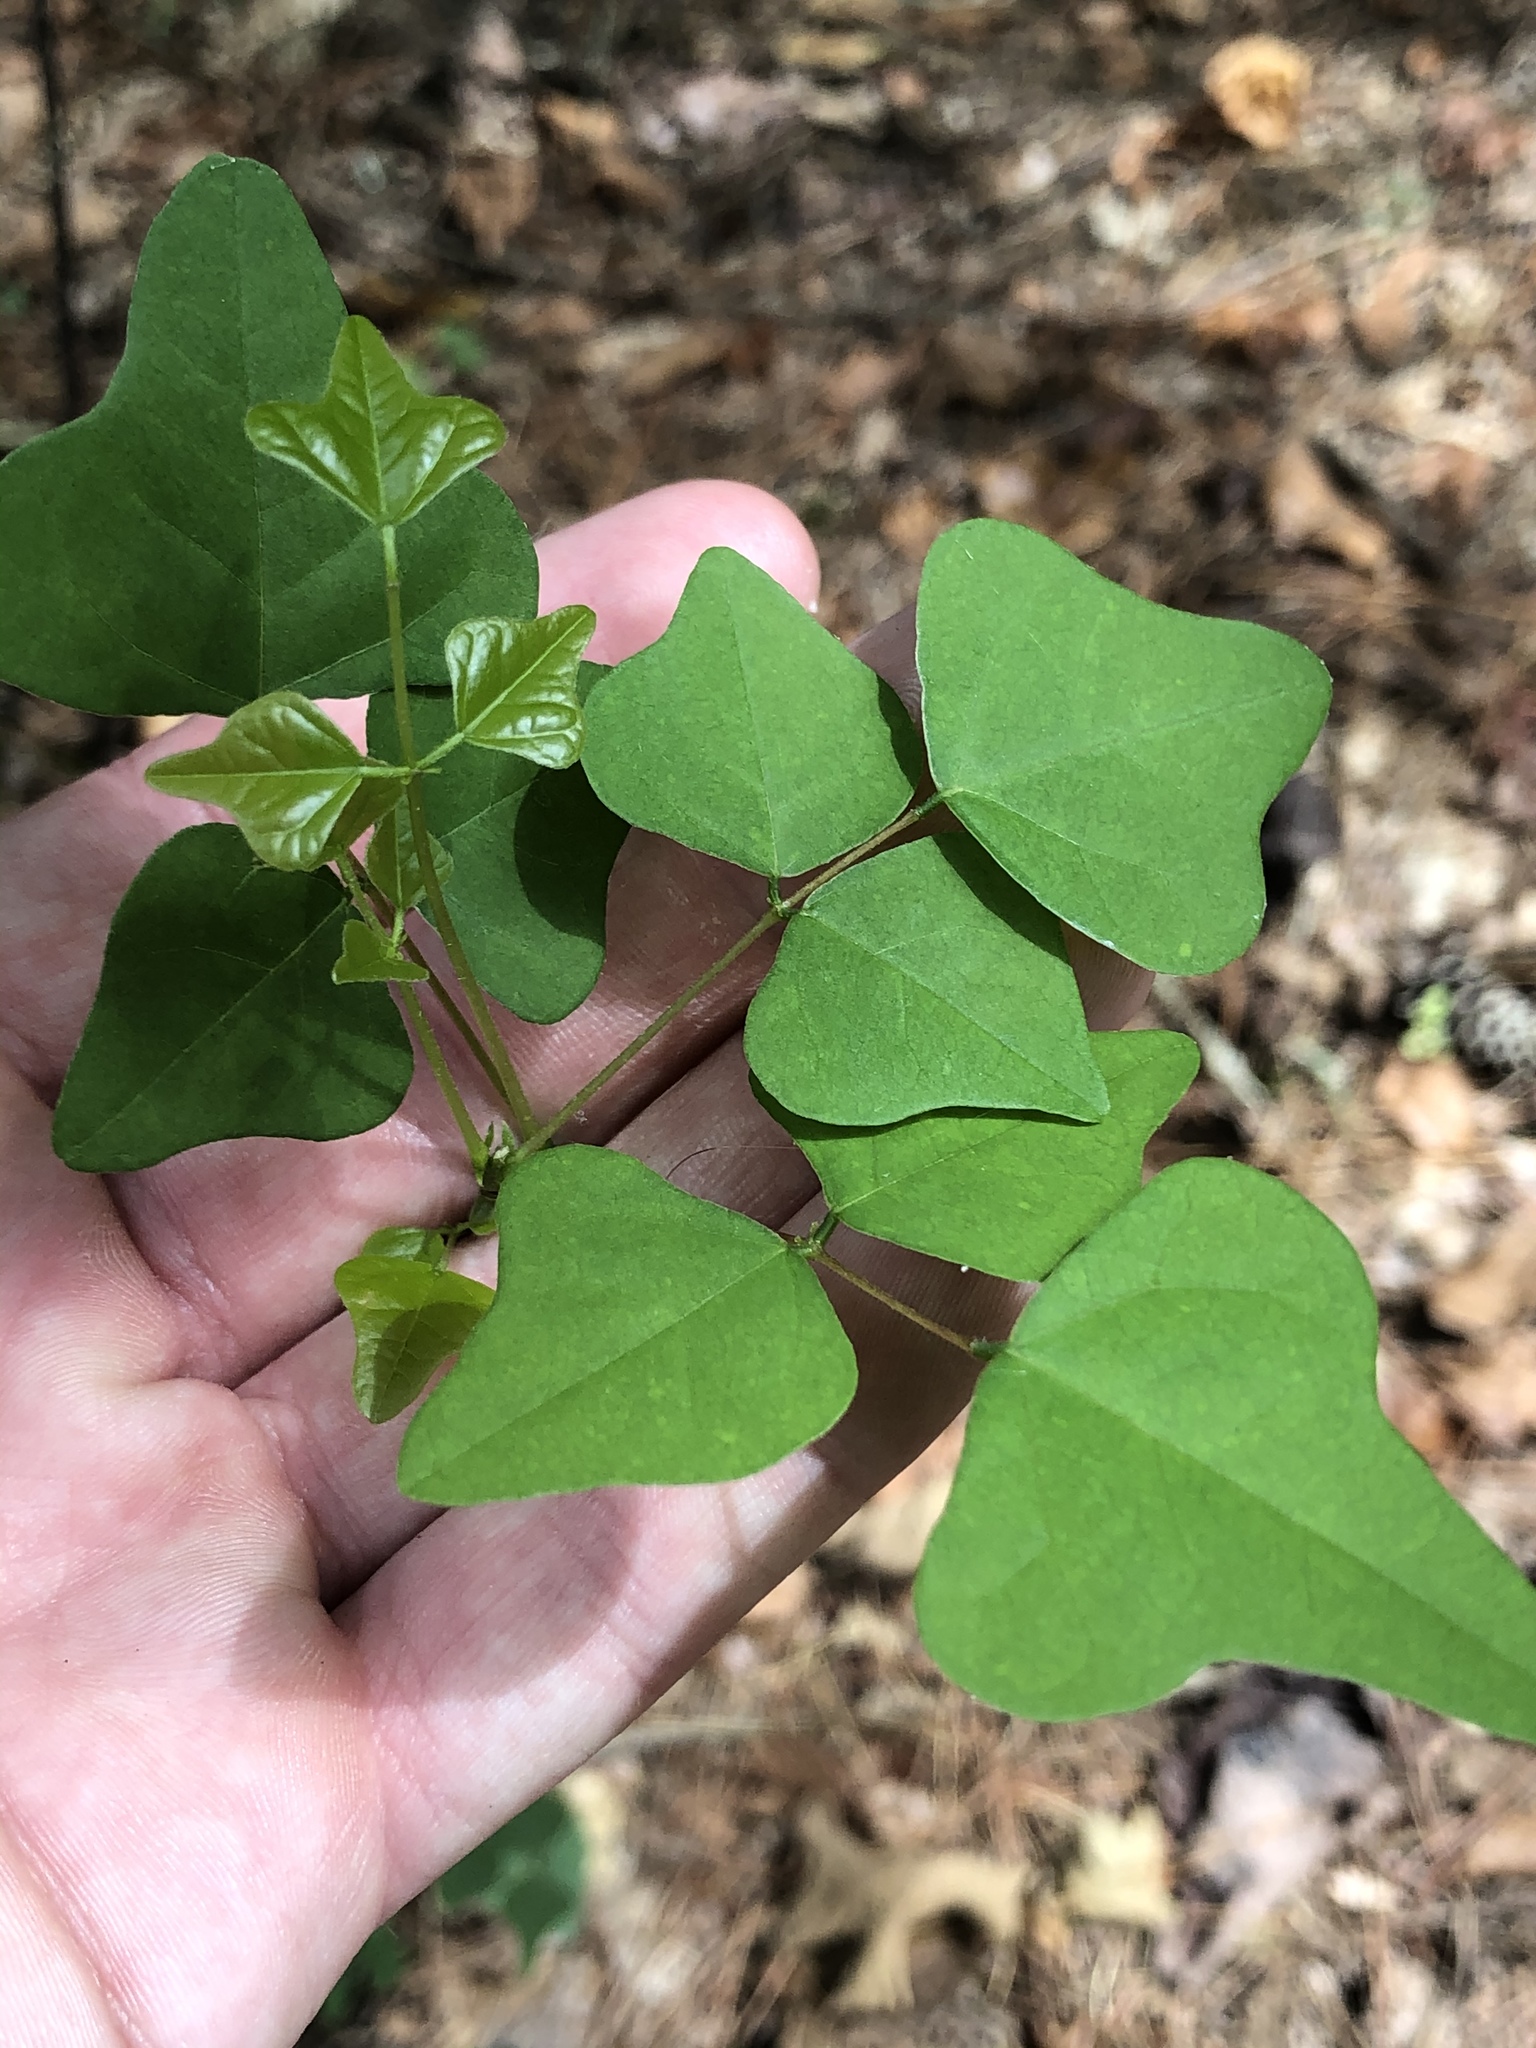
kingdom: Plantae
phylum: Tracheophyta
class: Magnoliopsida
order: Fabales
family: Fabaceae
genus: Erythrina
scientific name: Erythrina herbacea
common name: Coral-bean
